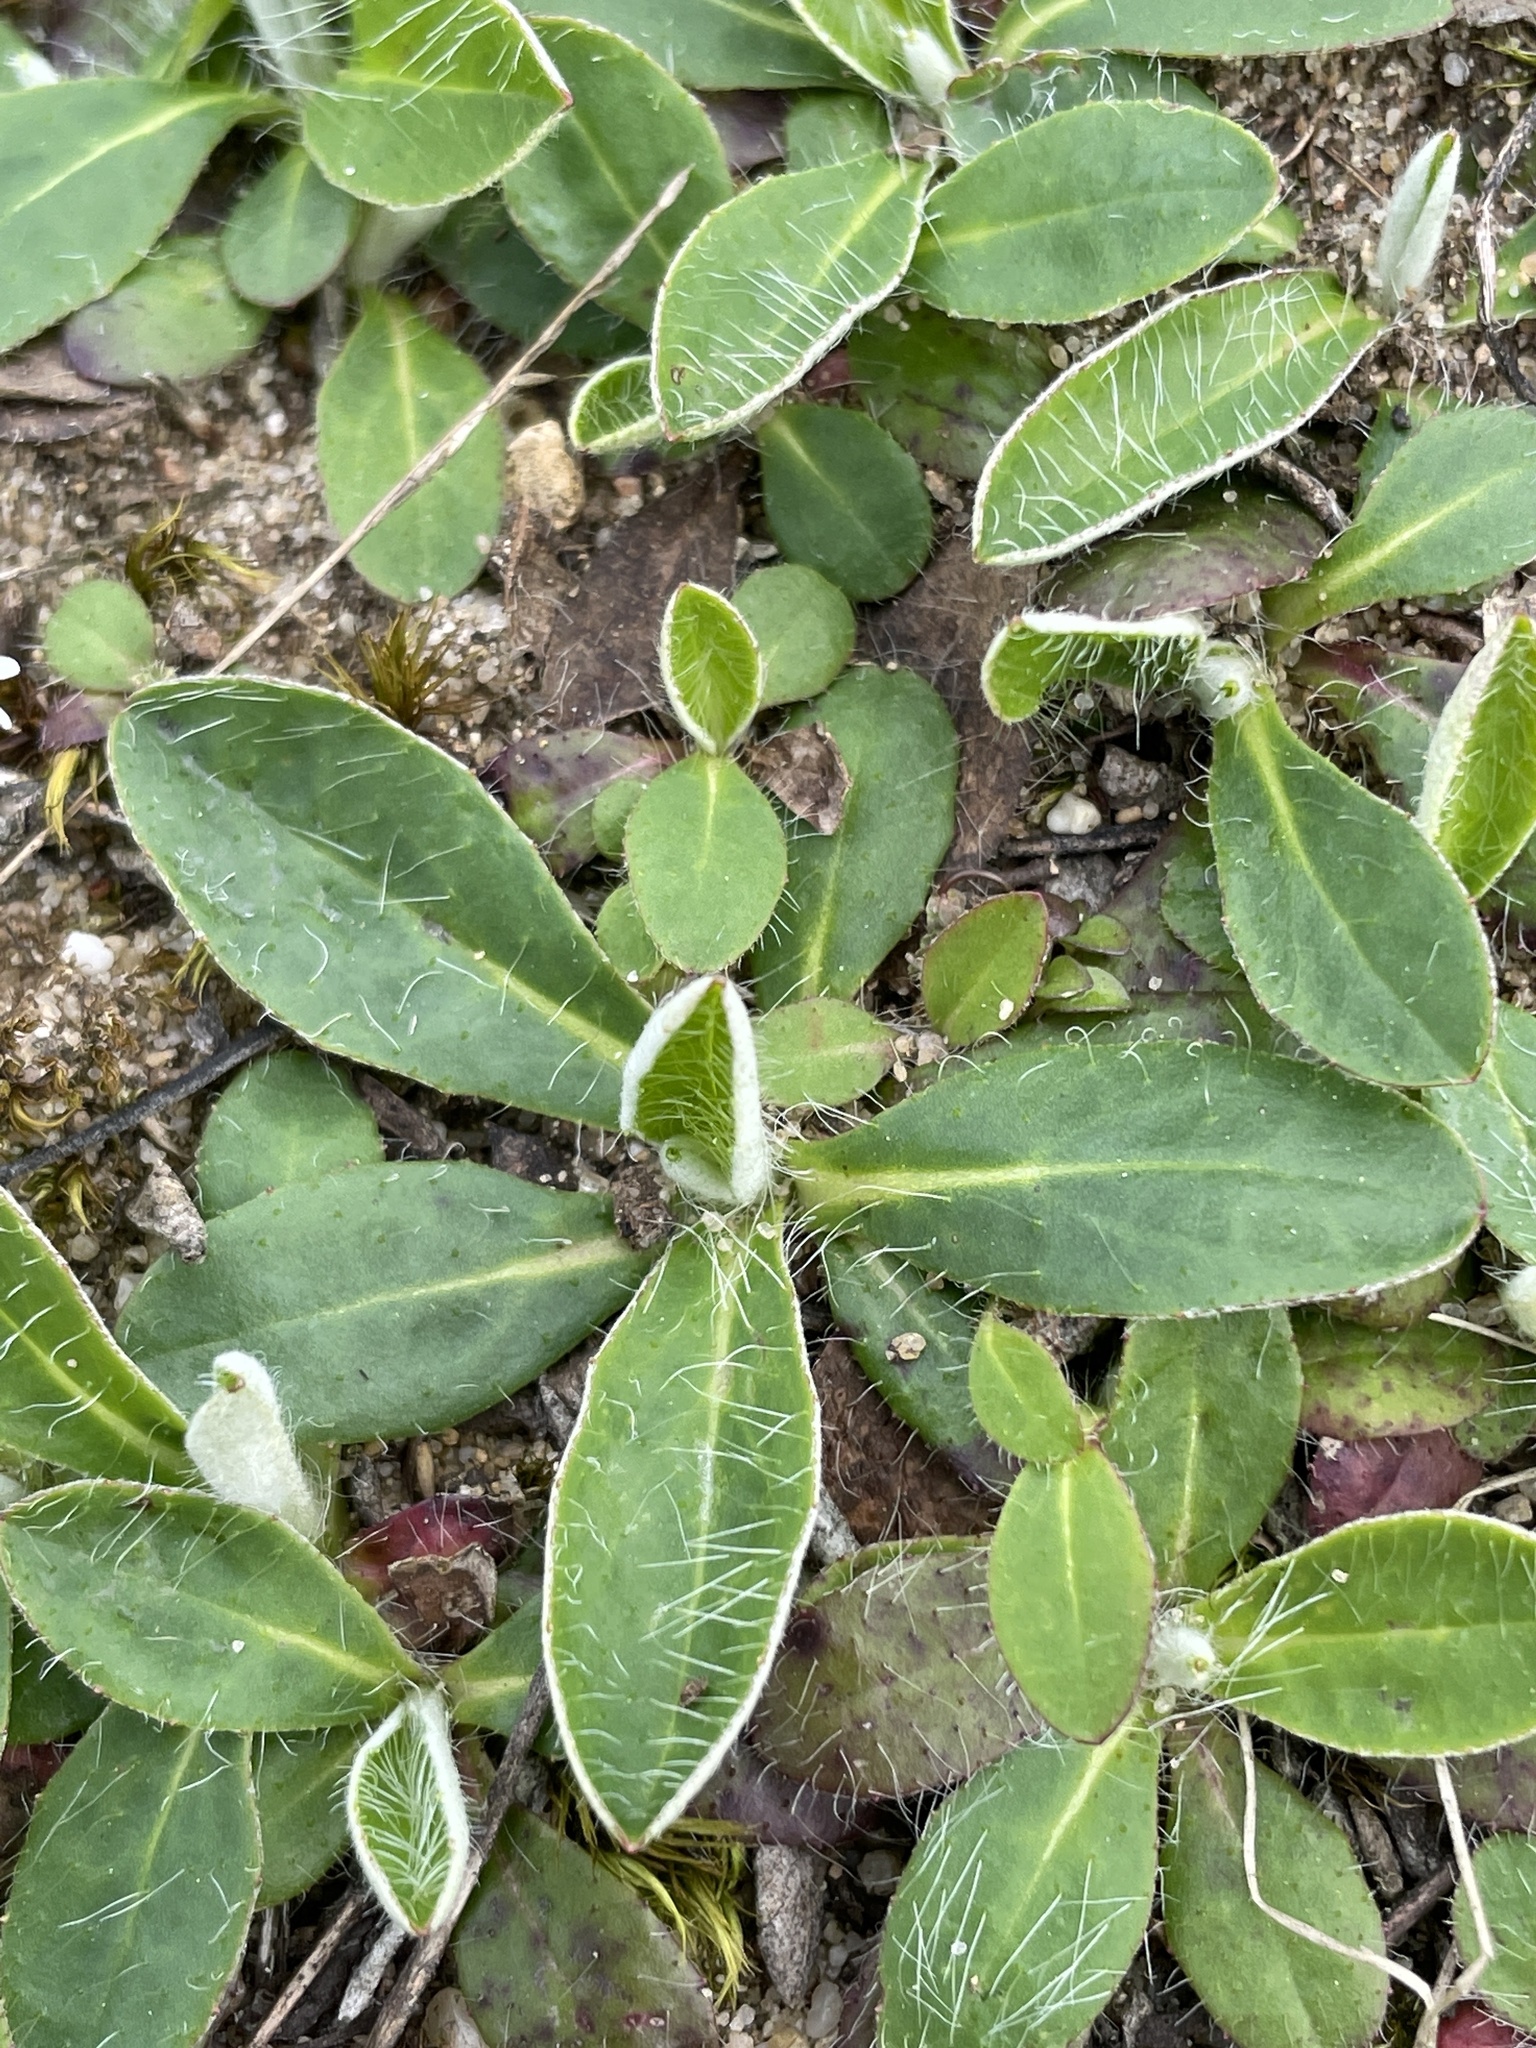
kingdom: Plantae
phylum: Tracheophyta
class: Magnoliopsida
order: Asterales
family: Asteraceae
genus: Pilosella
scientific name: Pilosella officinarum
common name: Mouse-ear hawkweed
